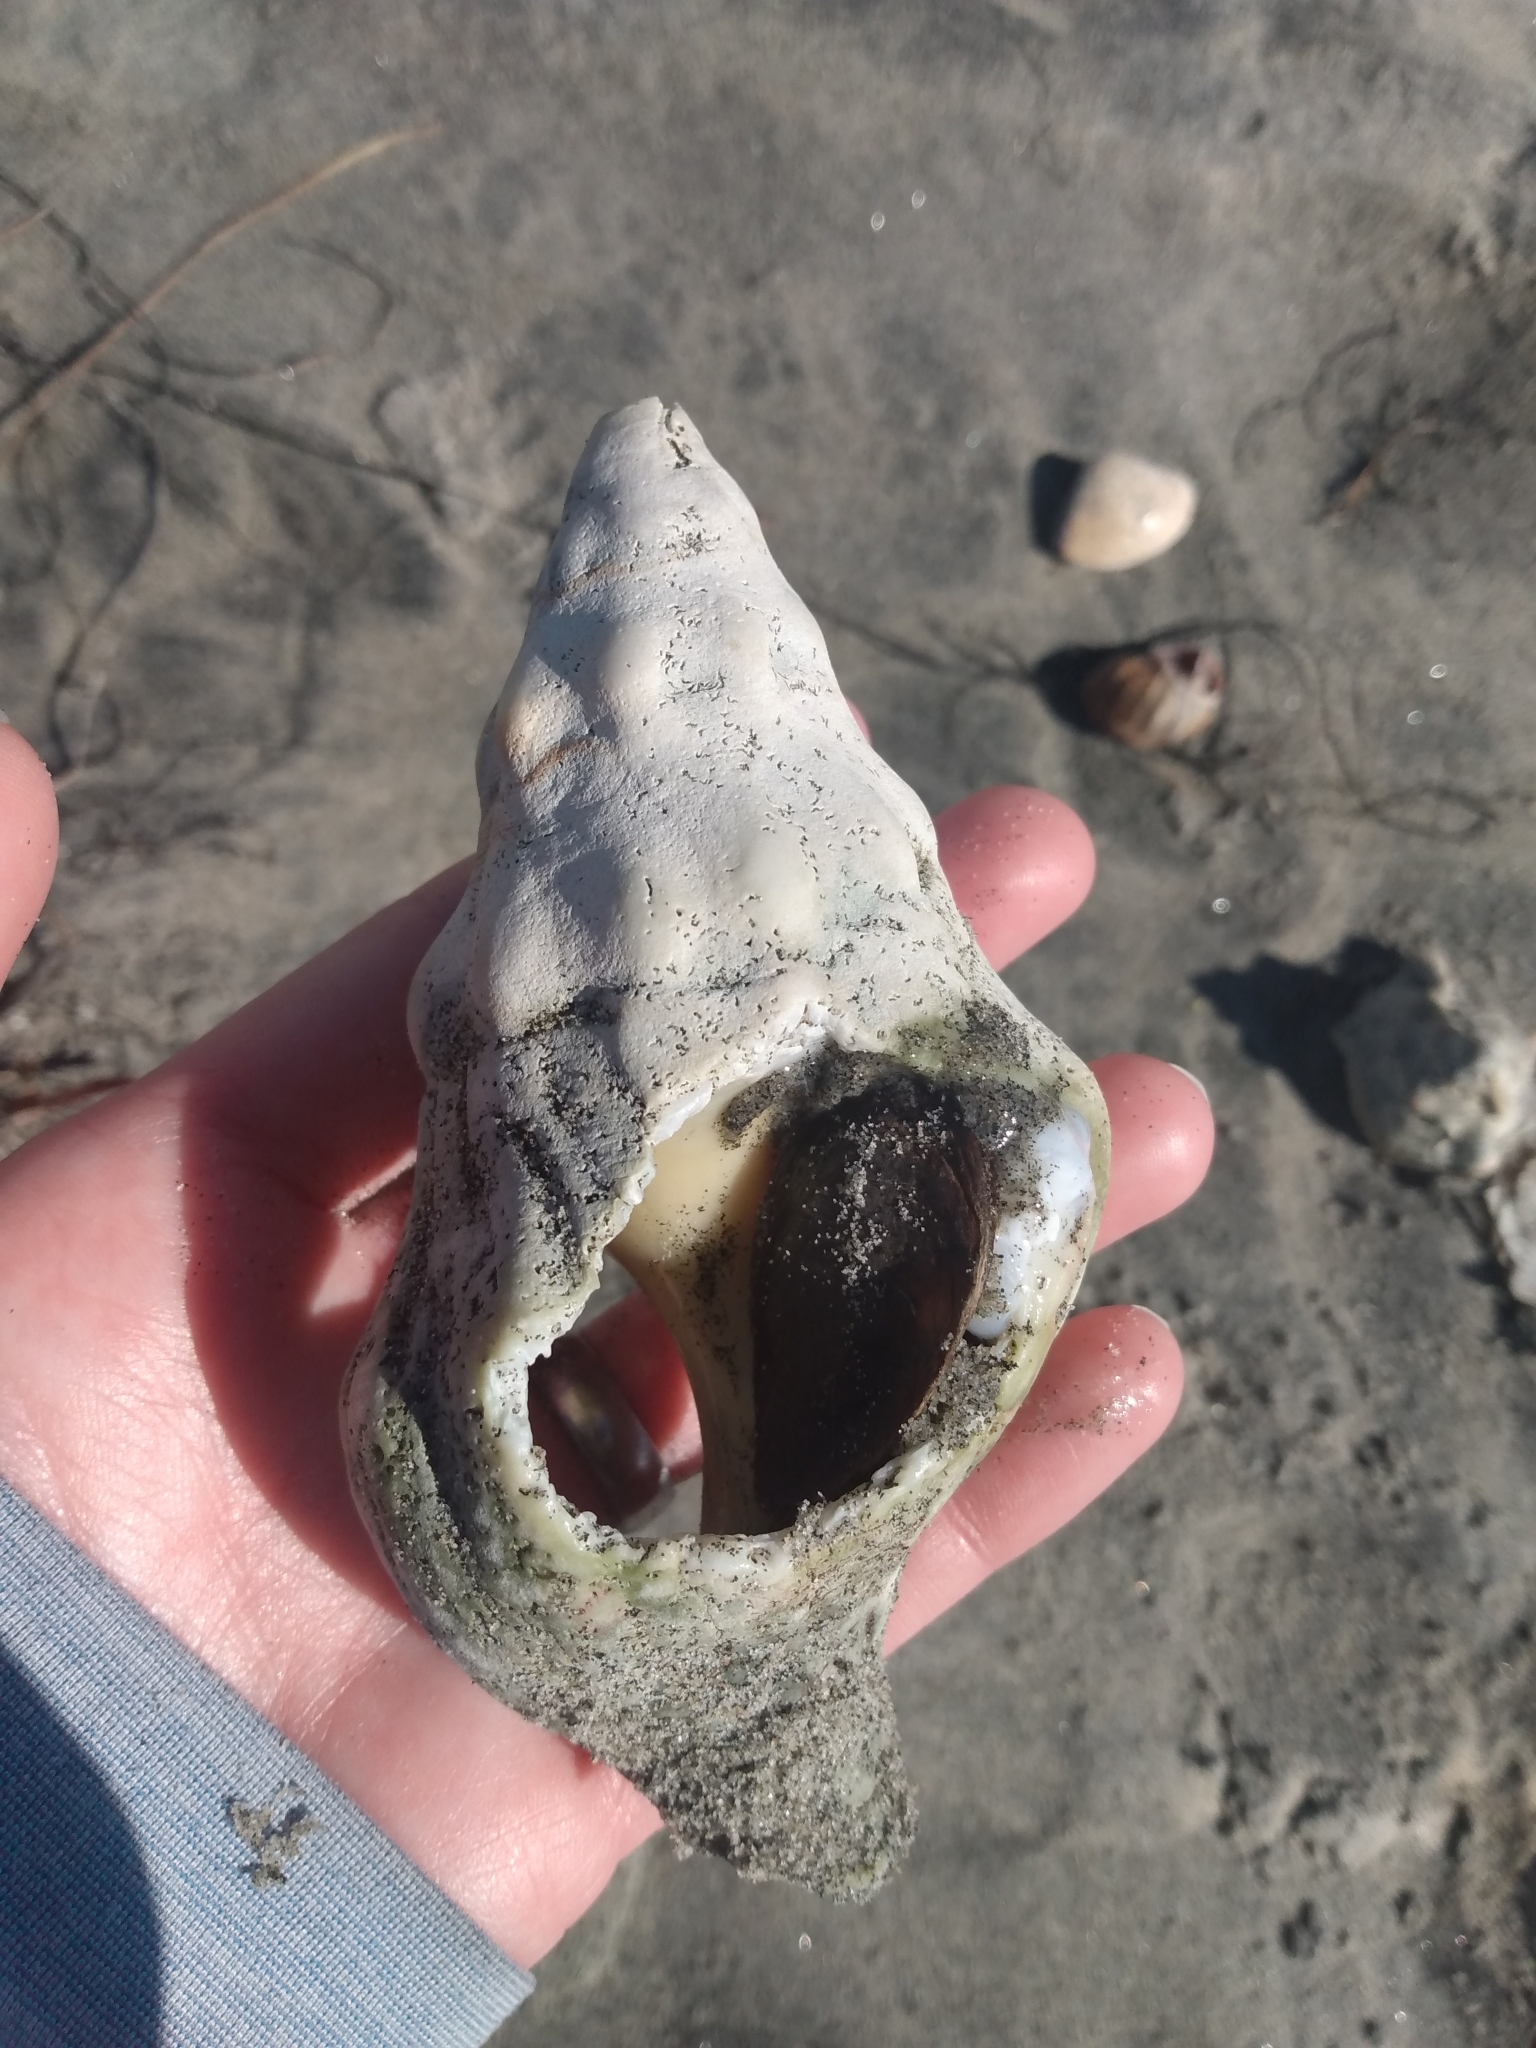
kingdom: Animalia
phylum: Mollusca
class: Gastropoda
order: Neogastropoda
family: Austrosiphonidae
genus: Kelletia
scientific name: Kelletia kelletii
